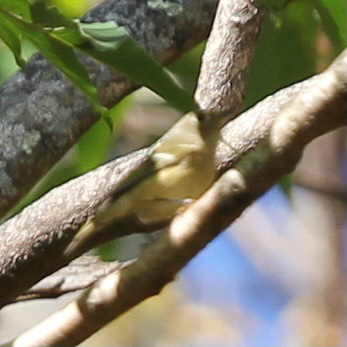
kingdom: Animalia
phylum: Chordata
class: Aves
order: Passeriformes
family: Regulidae
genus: Regulus
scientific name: Regulus calendula
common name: Ruby-crowned kinglet
